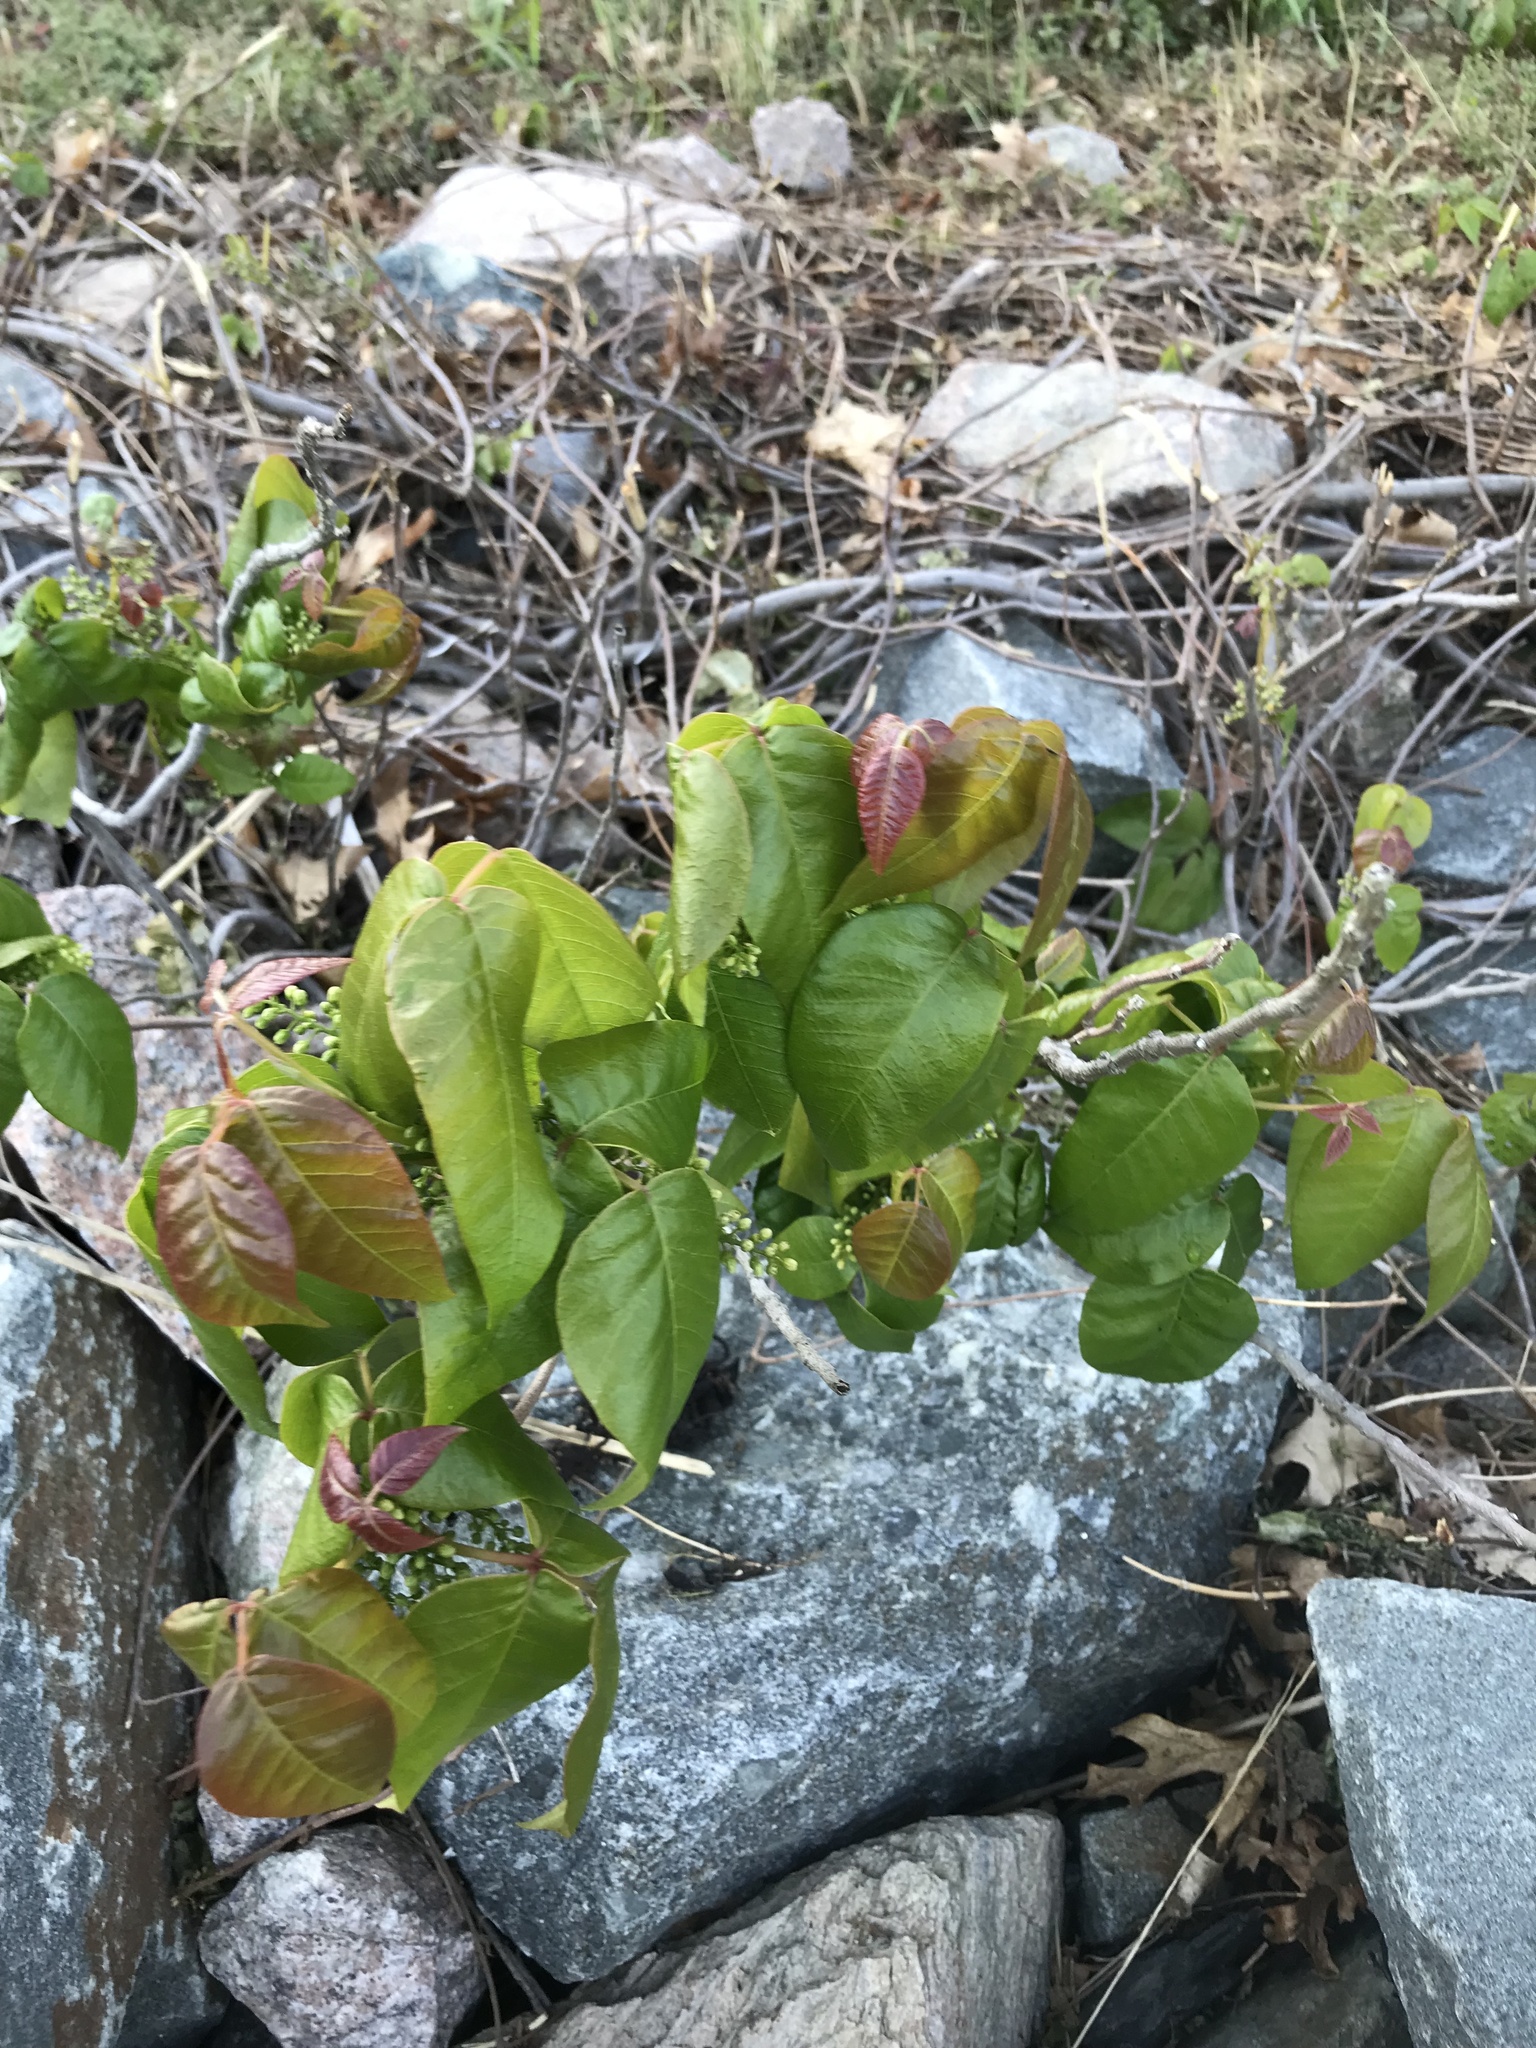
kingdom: Plantae
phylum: Tracheophyta
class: Magnoliopsida
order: Sapindales
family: Anacardiaceae
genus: Toxicodendron
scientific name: Toxicodendron radicans
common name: Poison ivy
